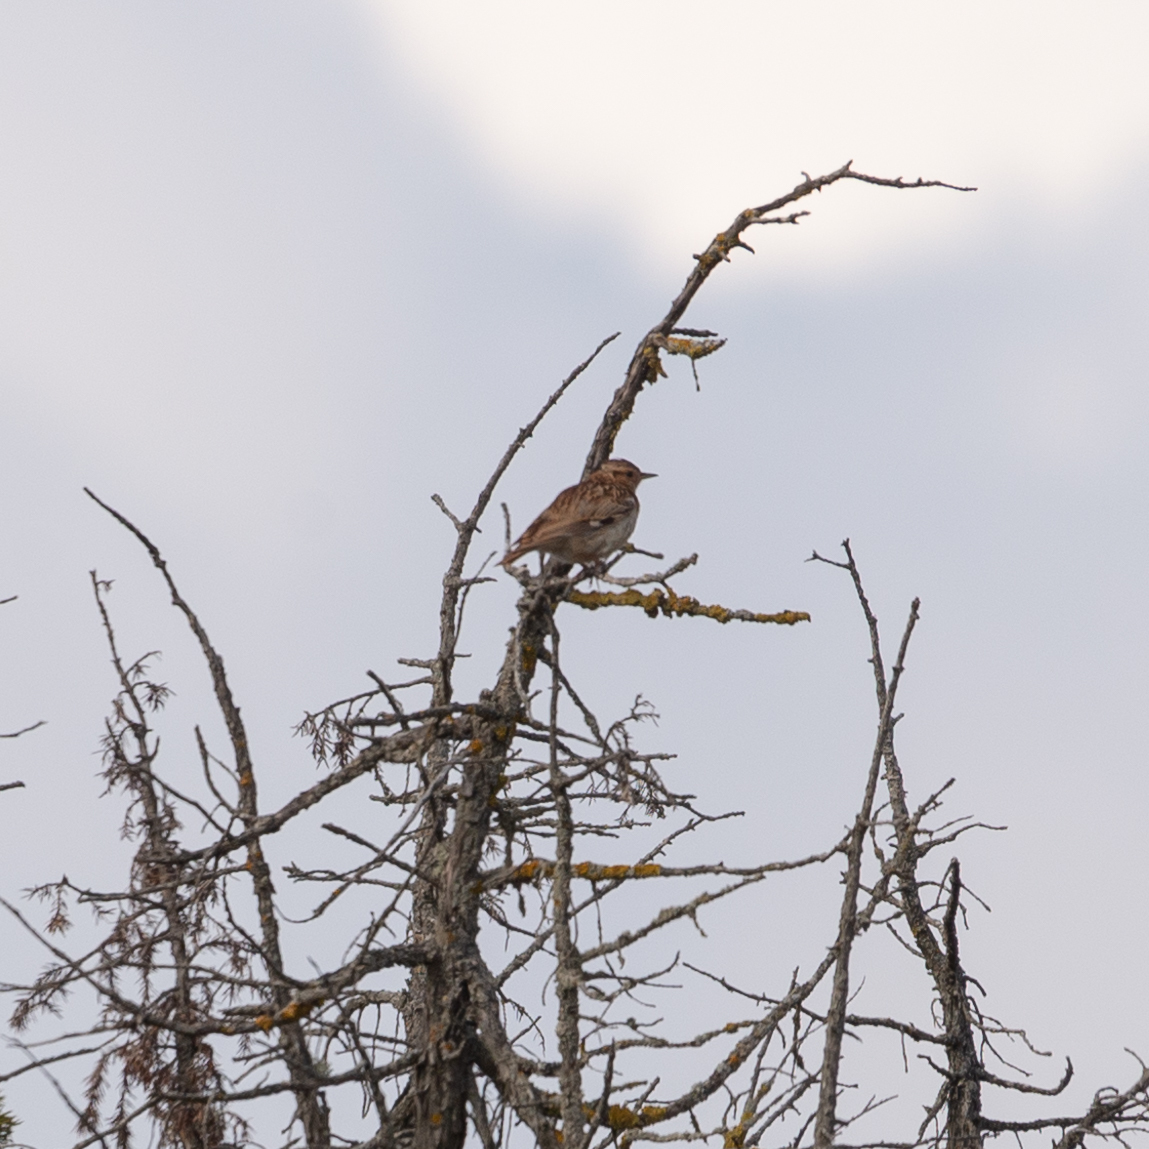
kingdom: Animalia
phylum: Chordata
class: Aves
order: Passeriformes
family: Alaudidae
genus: Lullula
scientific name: Lullula arborea
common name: Woodlark
